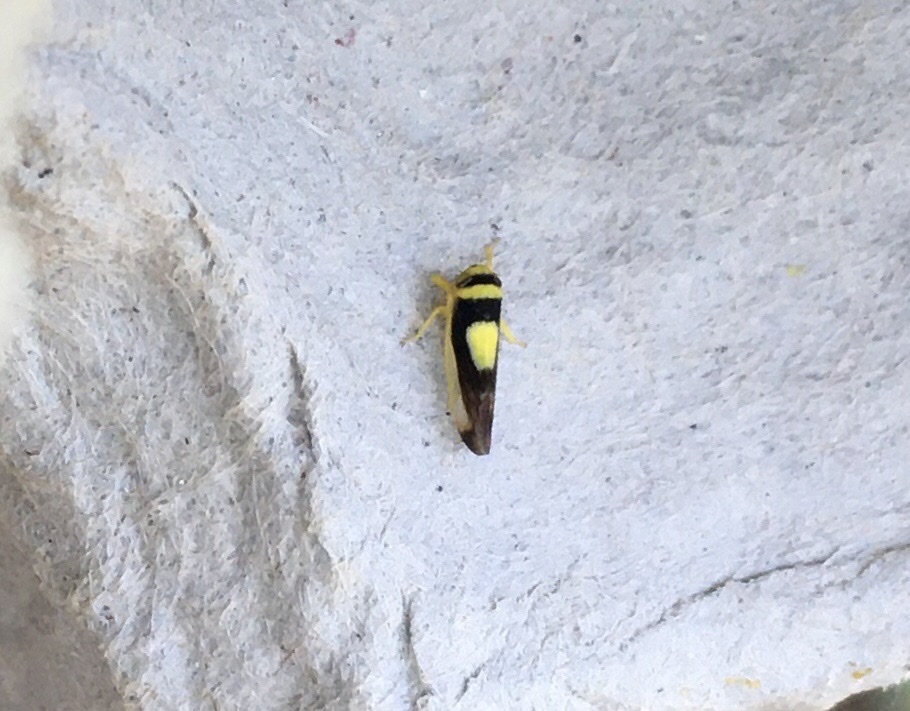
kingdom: Animalia
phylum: Arthropoda
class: Insecta
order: Hemiptera
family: Cicadellidae
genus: Colladonus
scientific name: Colladonus clitellarius
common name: The saddleback leafhopper
